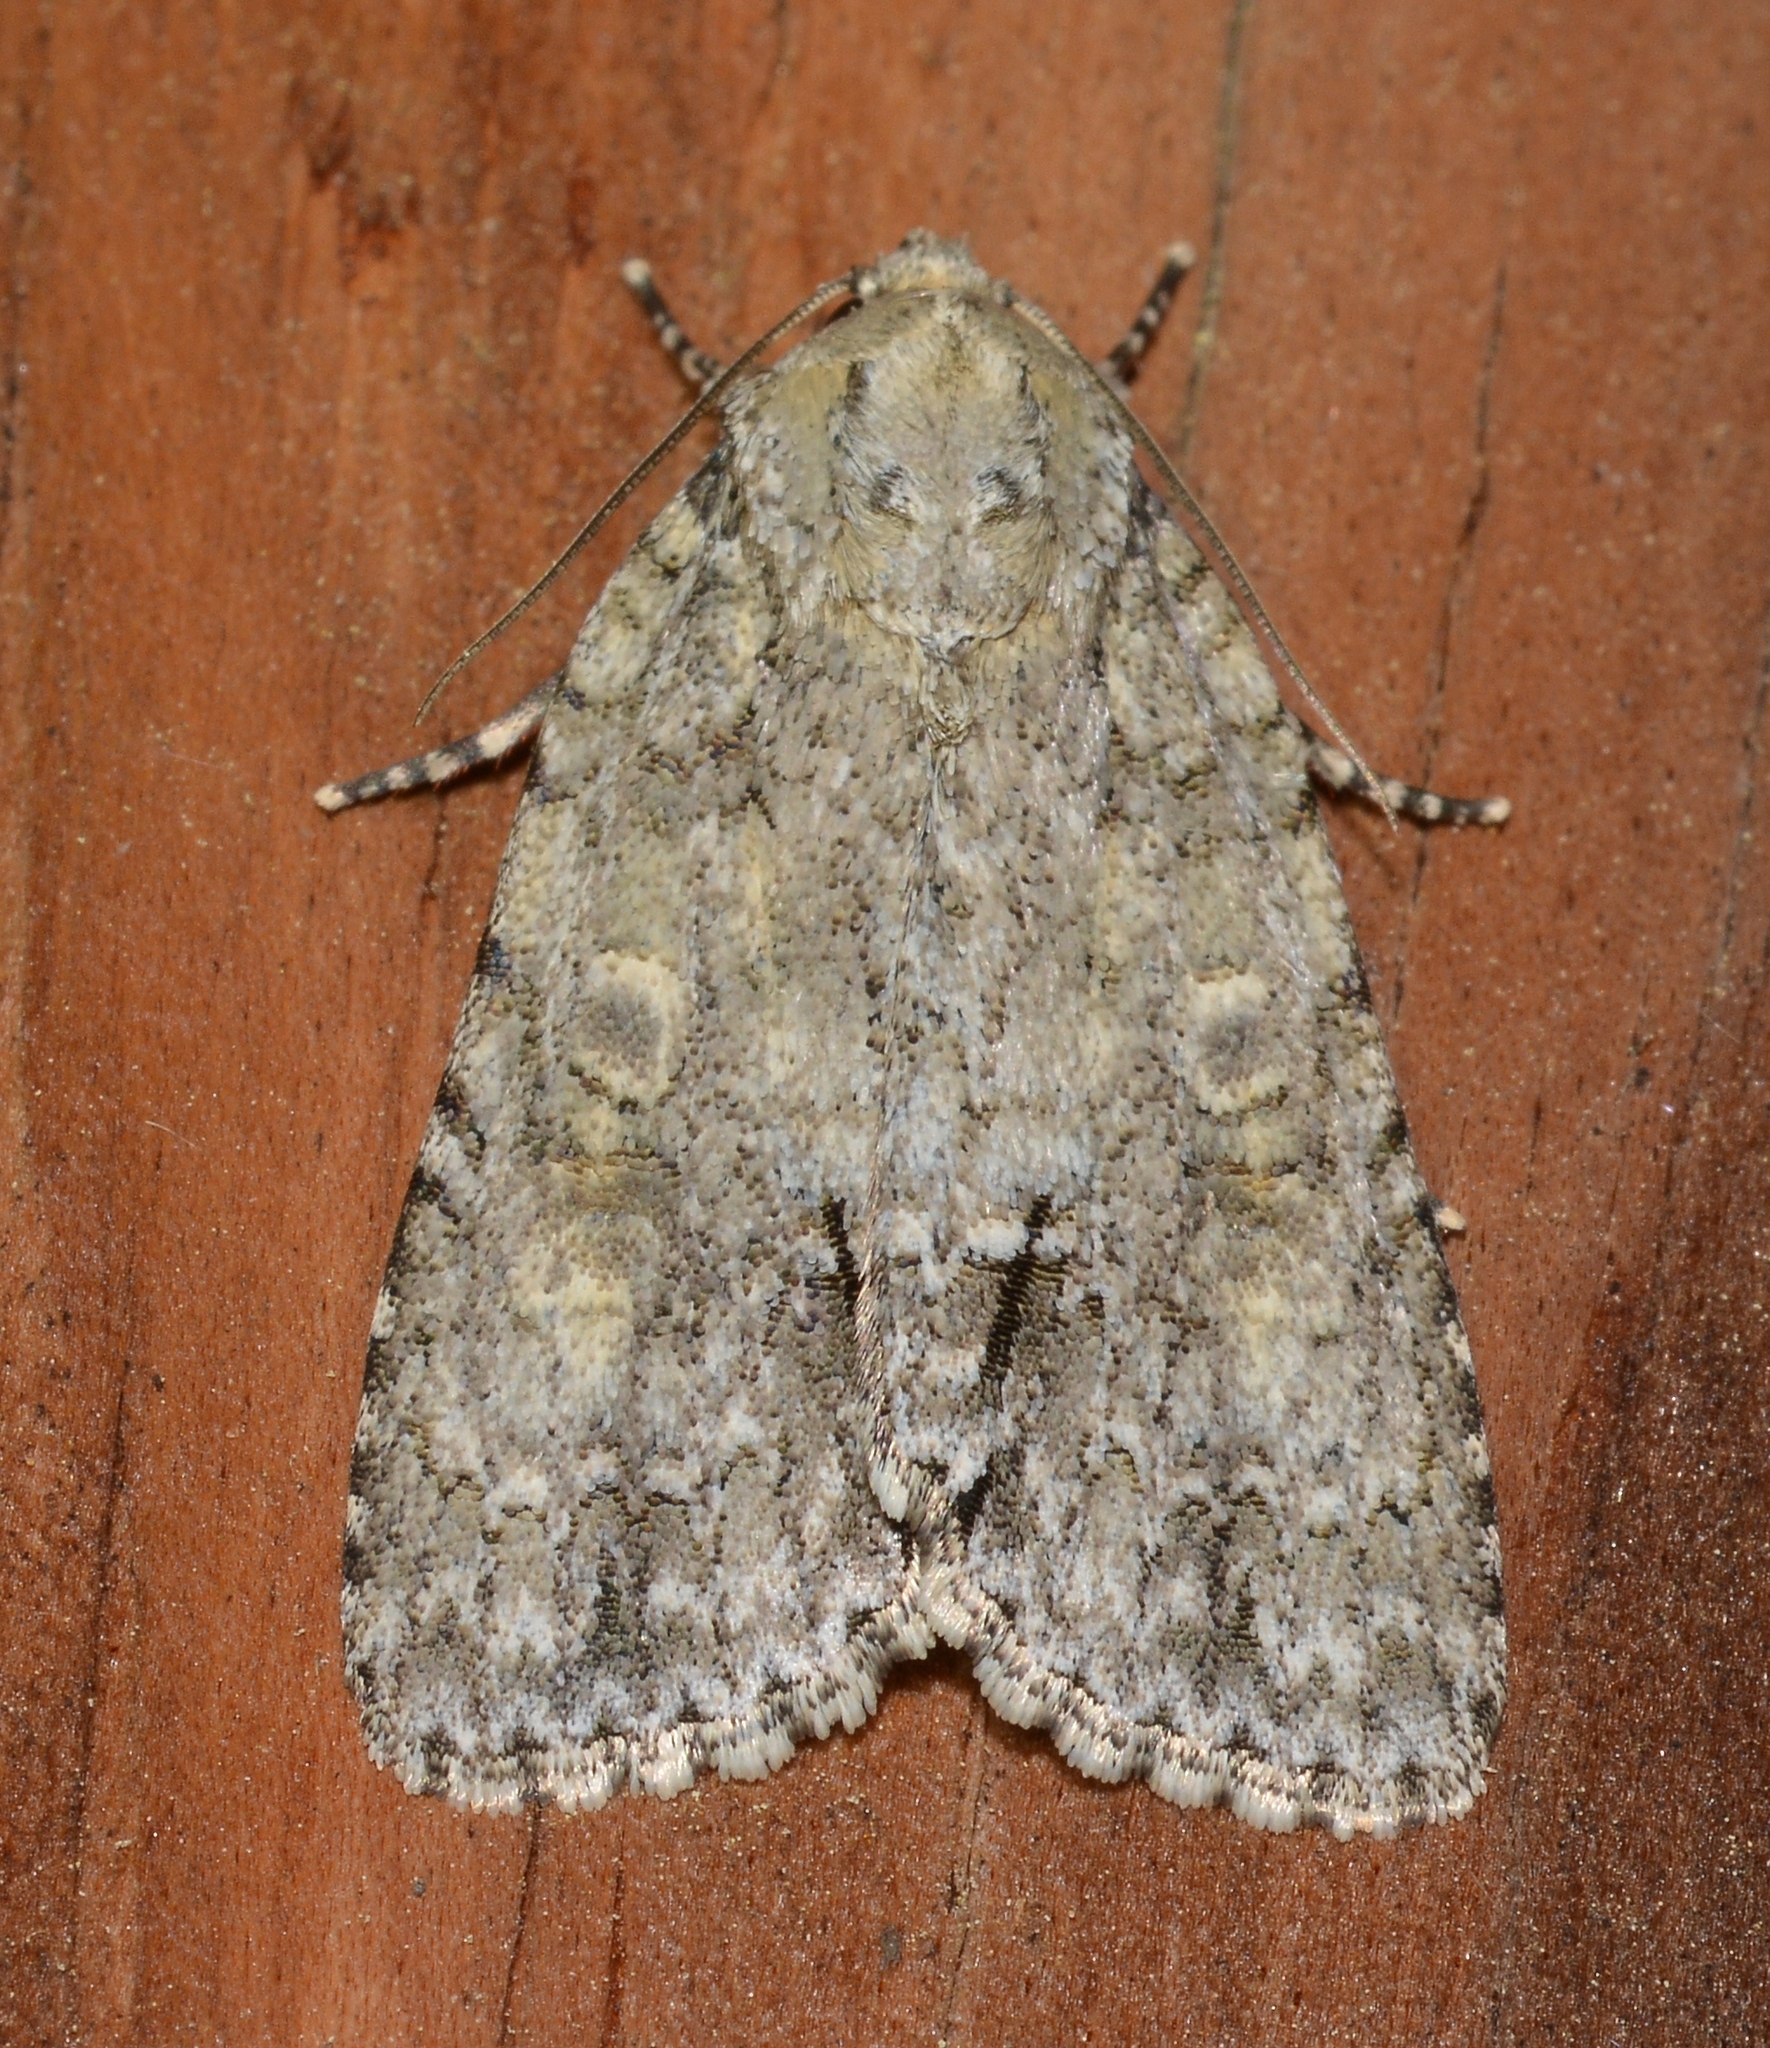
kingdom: Animalia
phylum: Arthropoda
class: Insecta
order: Lepidoptera
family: Noctuidae
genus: Acronicta
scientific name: Acronicta
